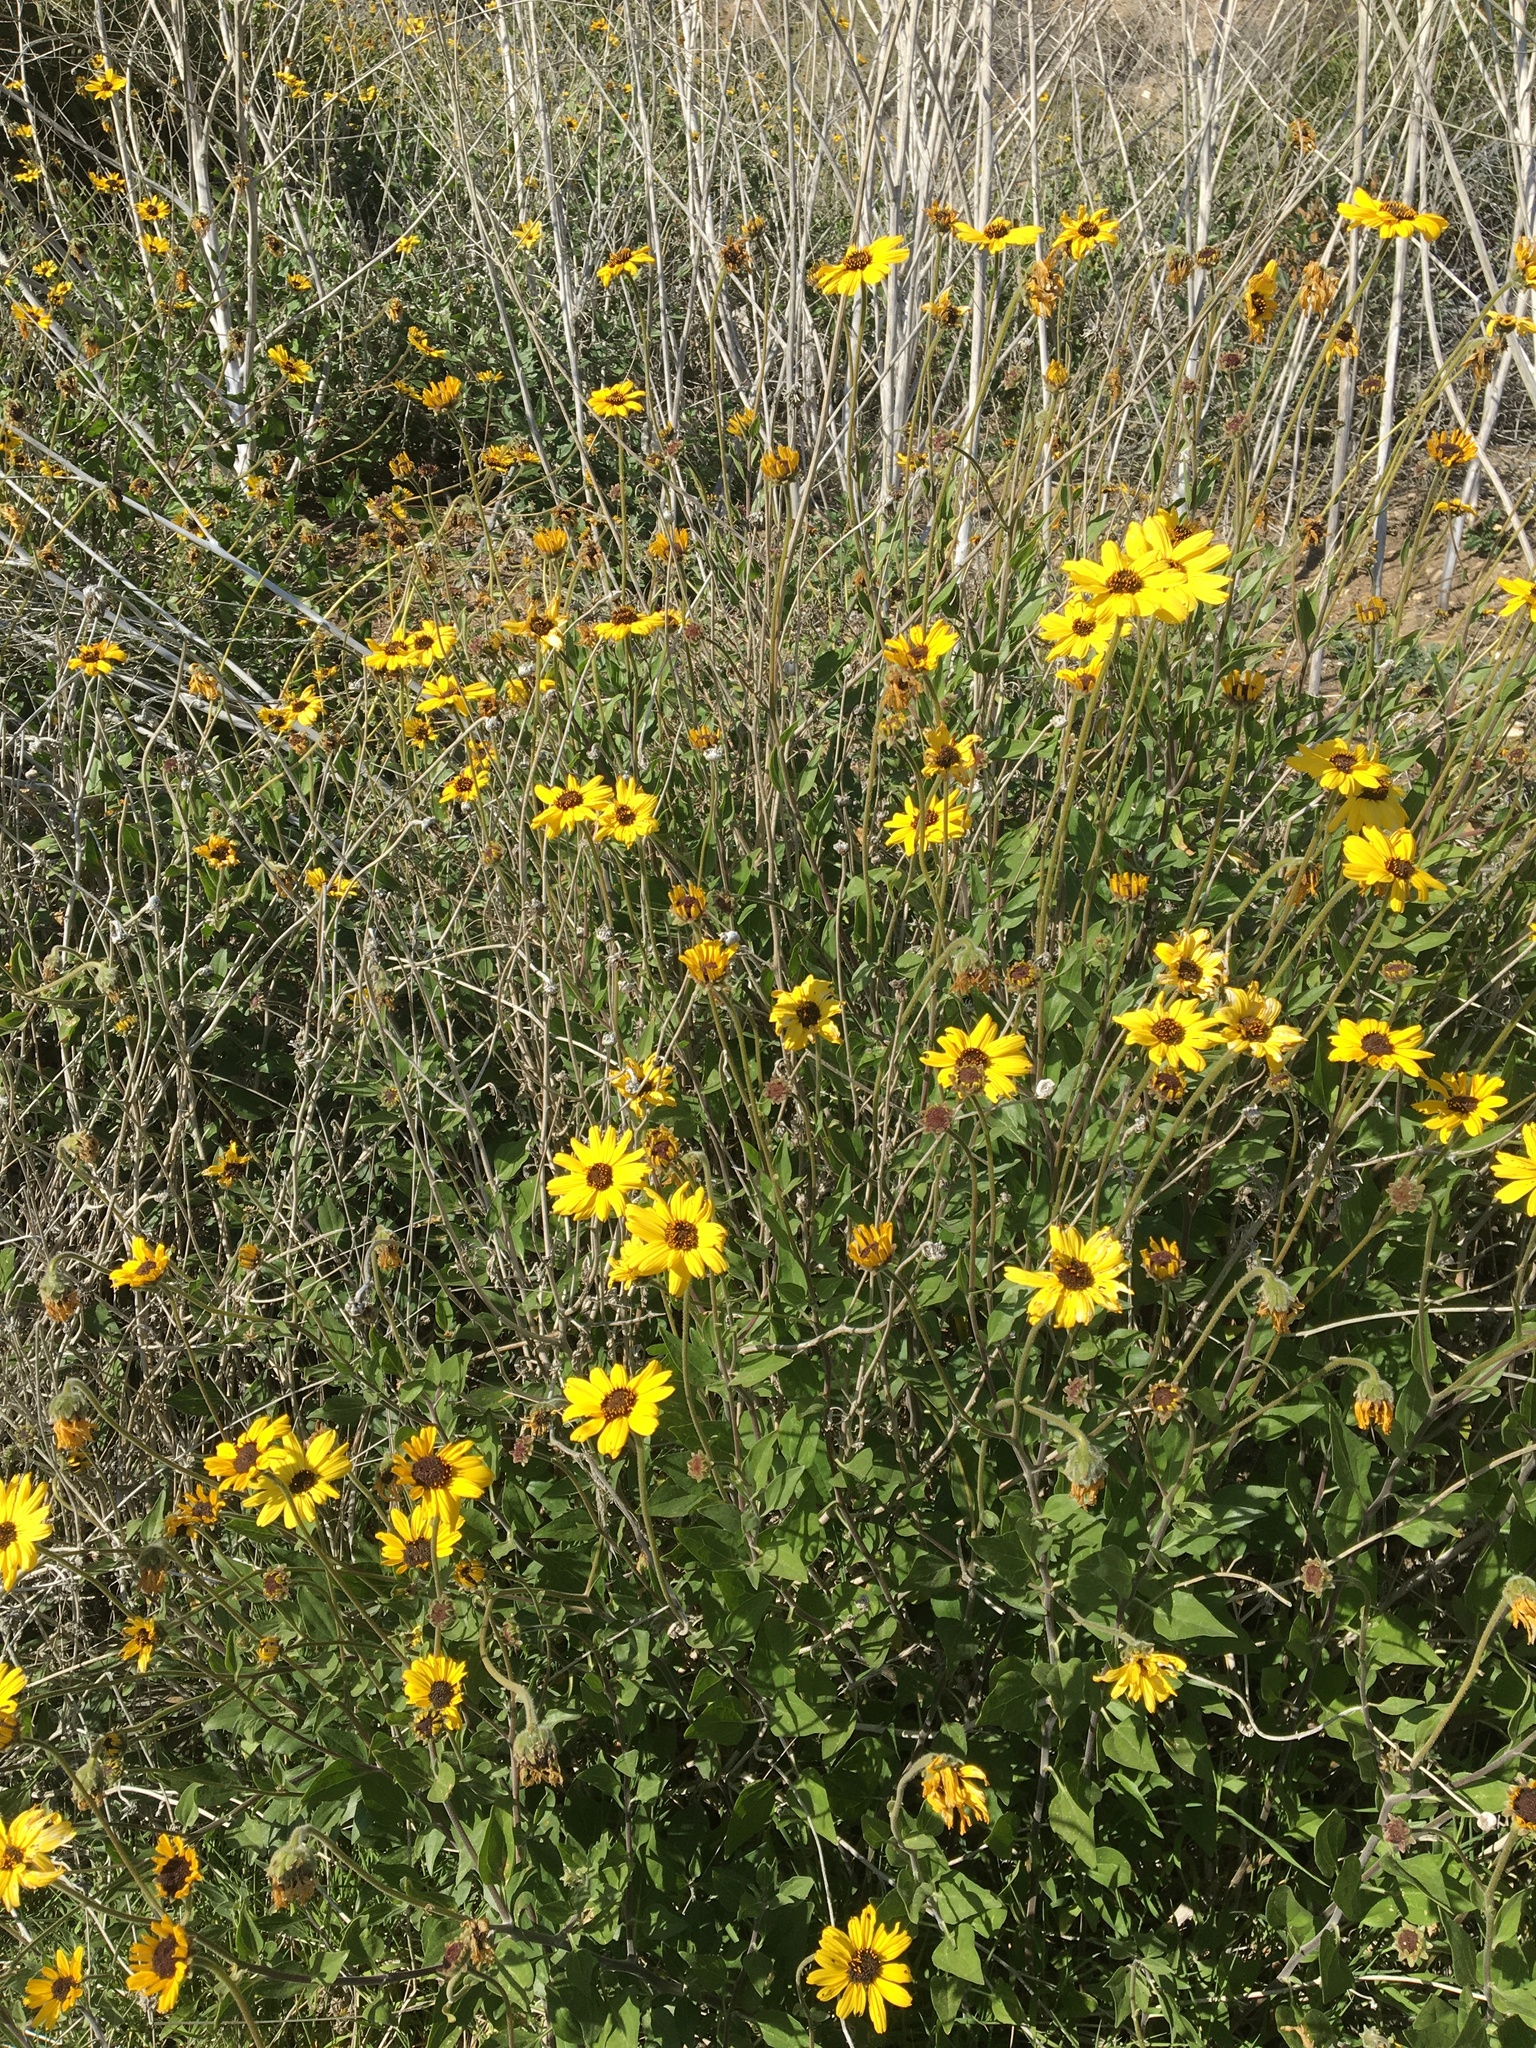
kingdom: Plantae
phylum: Tracheophyta
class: Magnoliopsida
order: Asterales
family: Asteraceae
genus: Encelia
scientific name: Encelia californica
